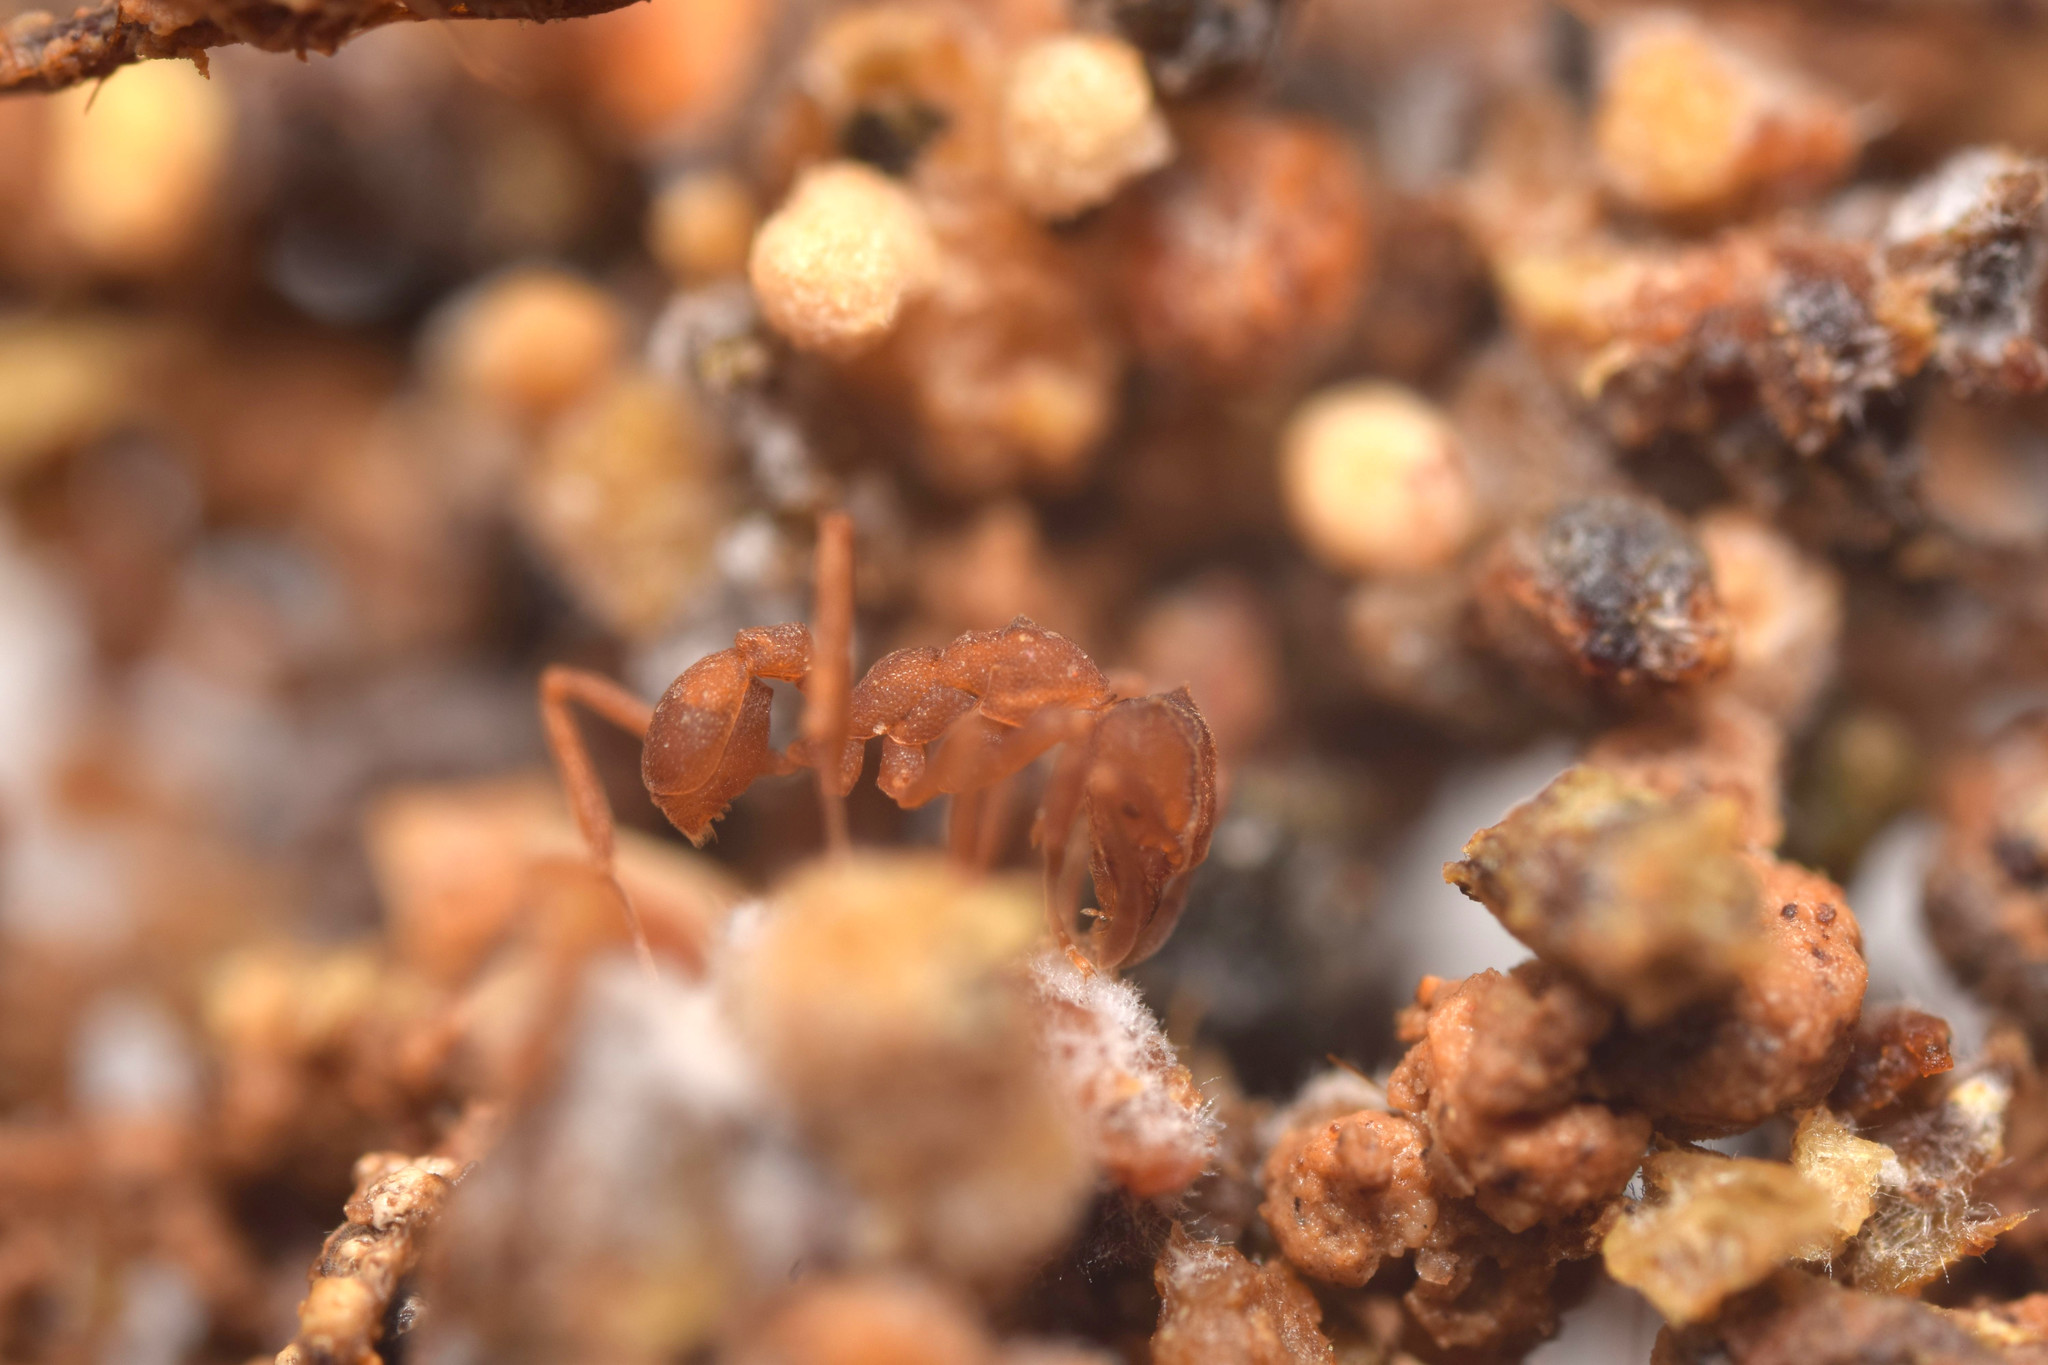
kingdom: Animalia
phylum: Arthropoda
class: Insecta
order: Hymenoptera
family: Formicidae
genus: Cyphomyrmex
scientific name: Cyphomyrmex longiscapus
